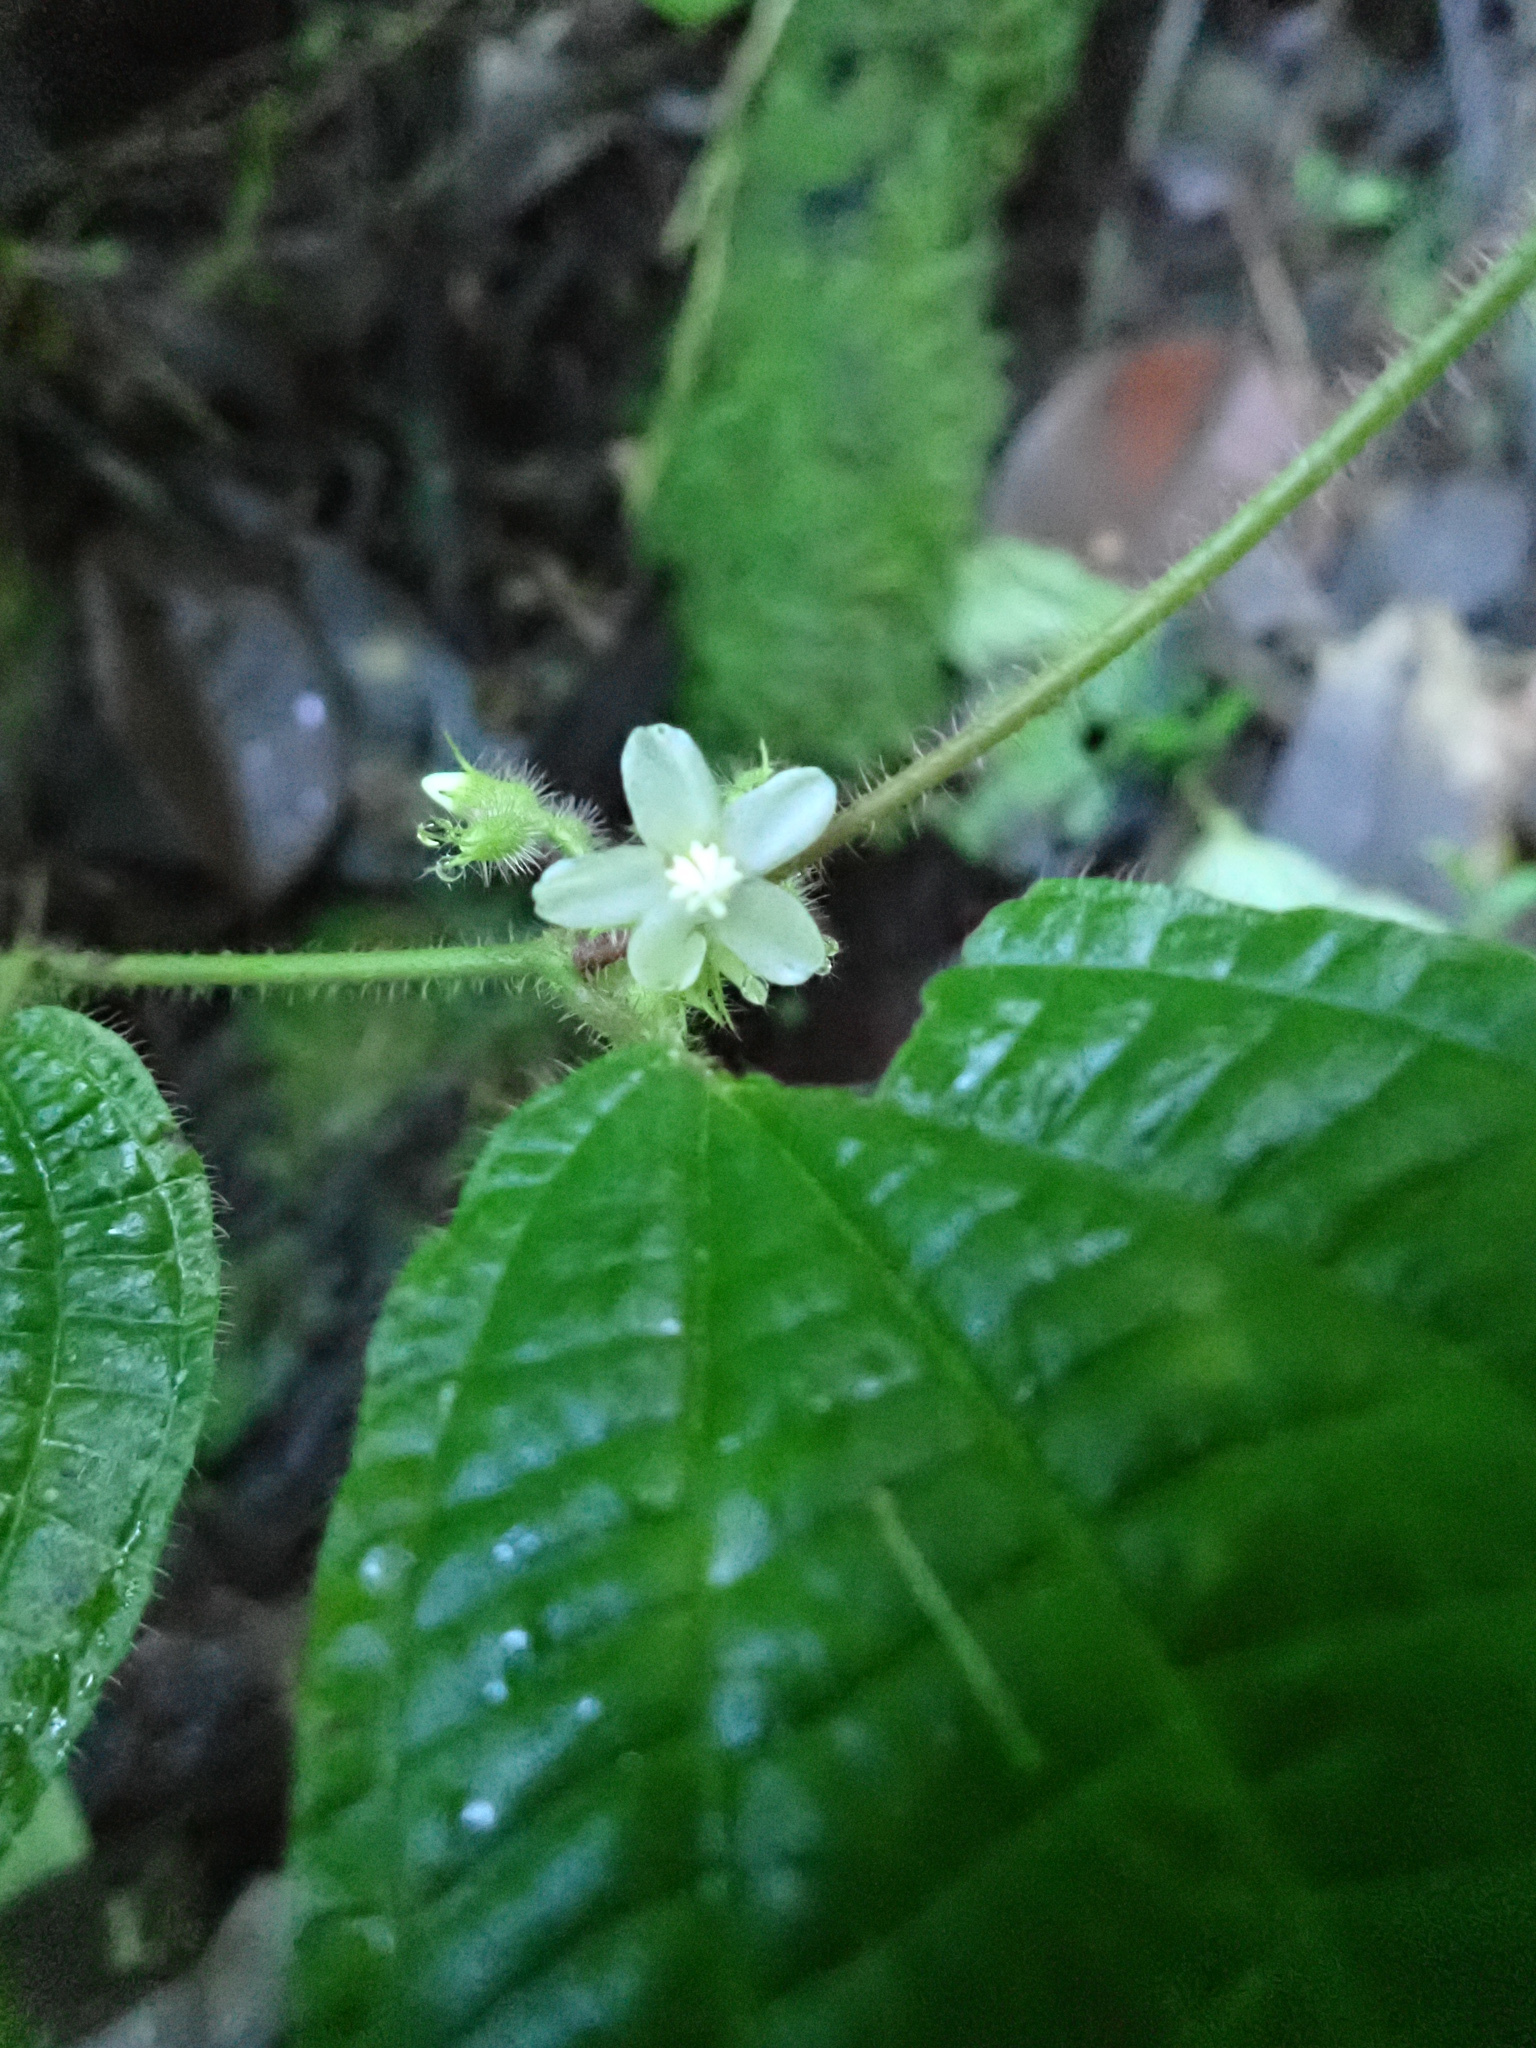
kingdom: Plantae
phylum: Tracheophyta
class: Magnoliopsida
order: Myrtales
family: Melastomataceae
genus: Miconia
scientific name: Miconia crenata
